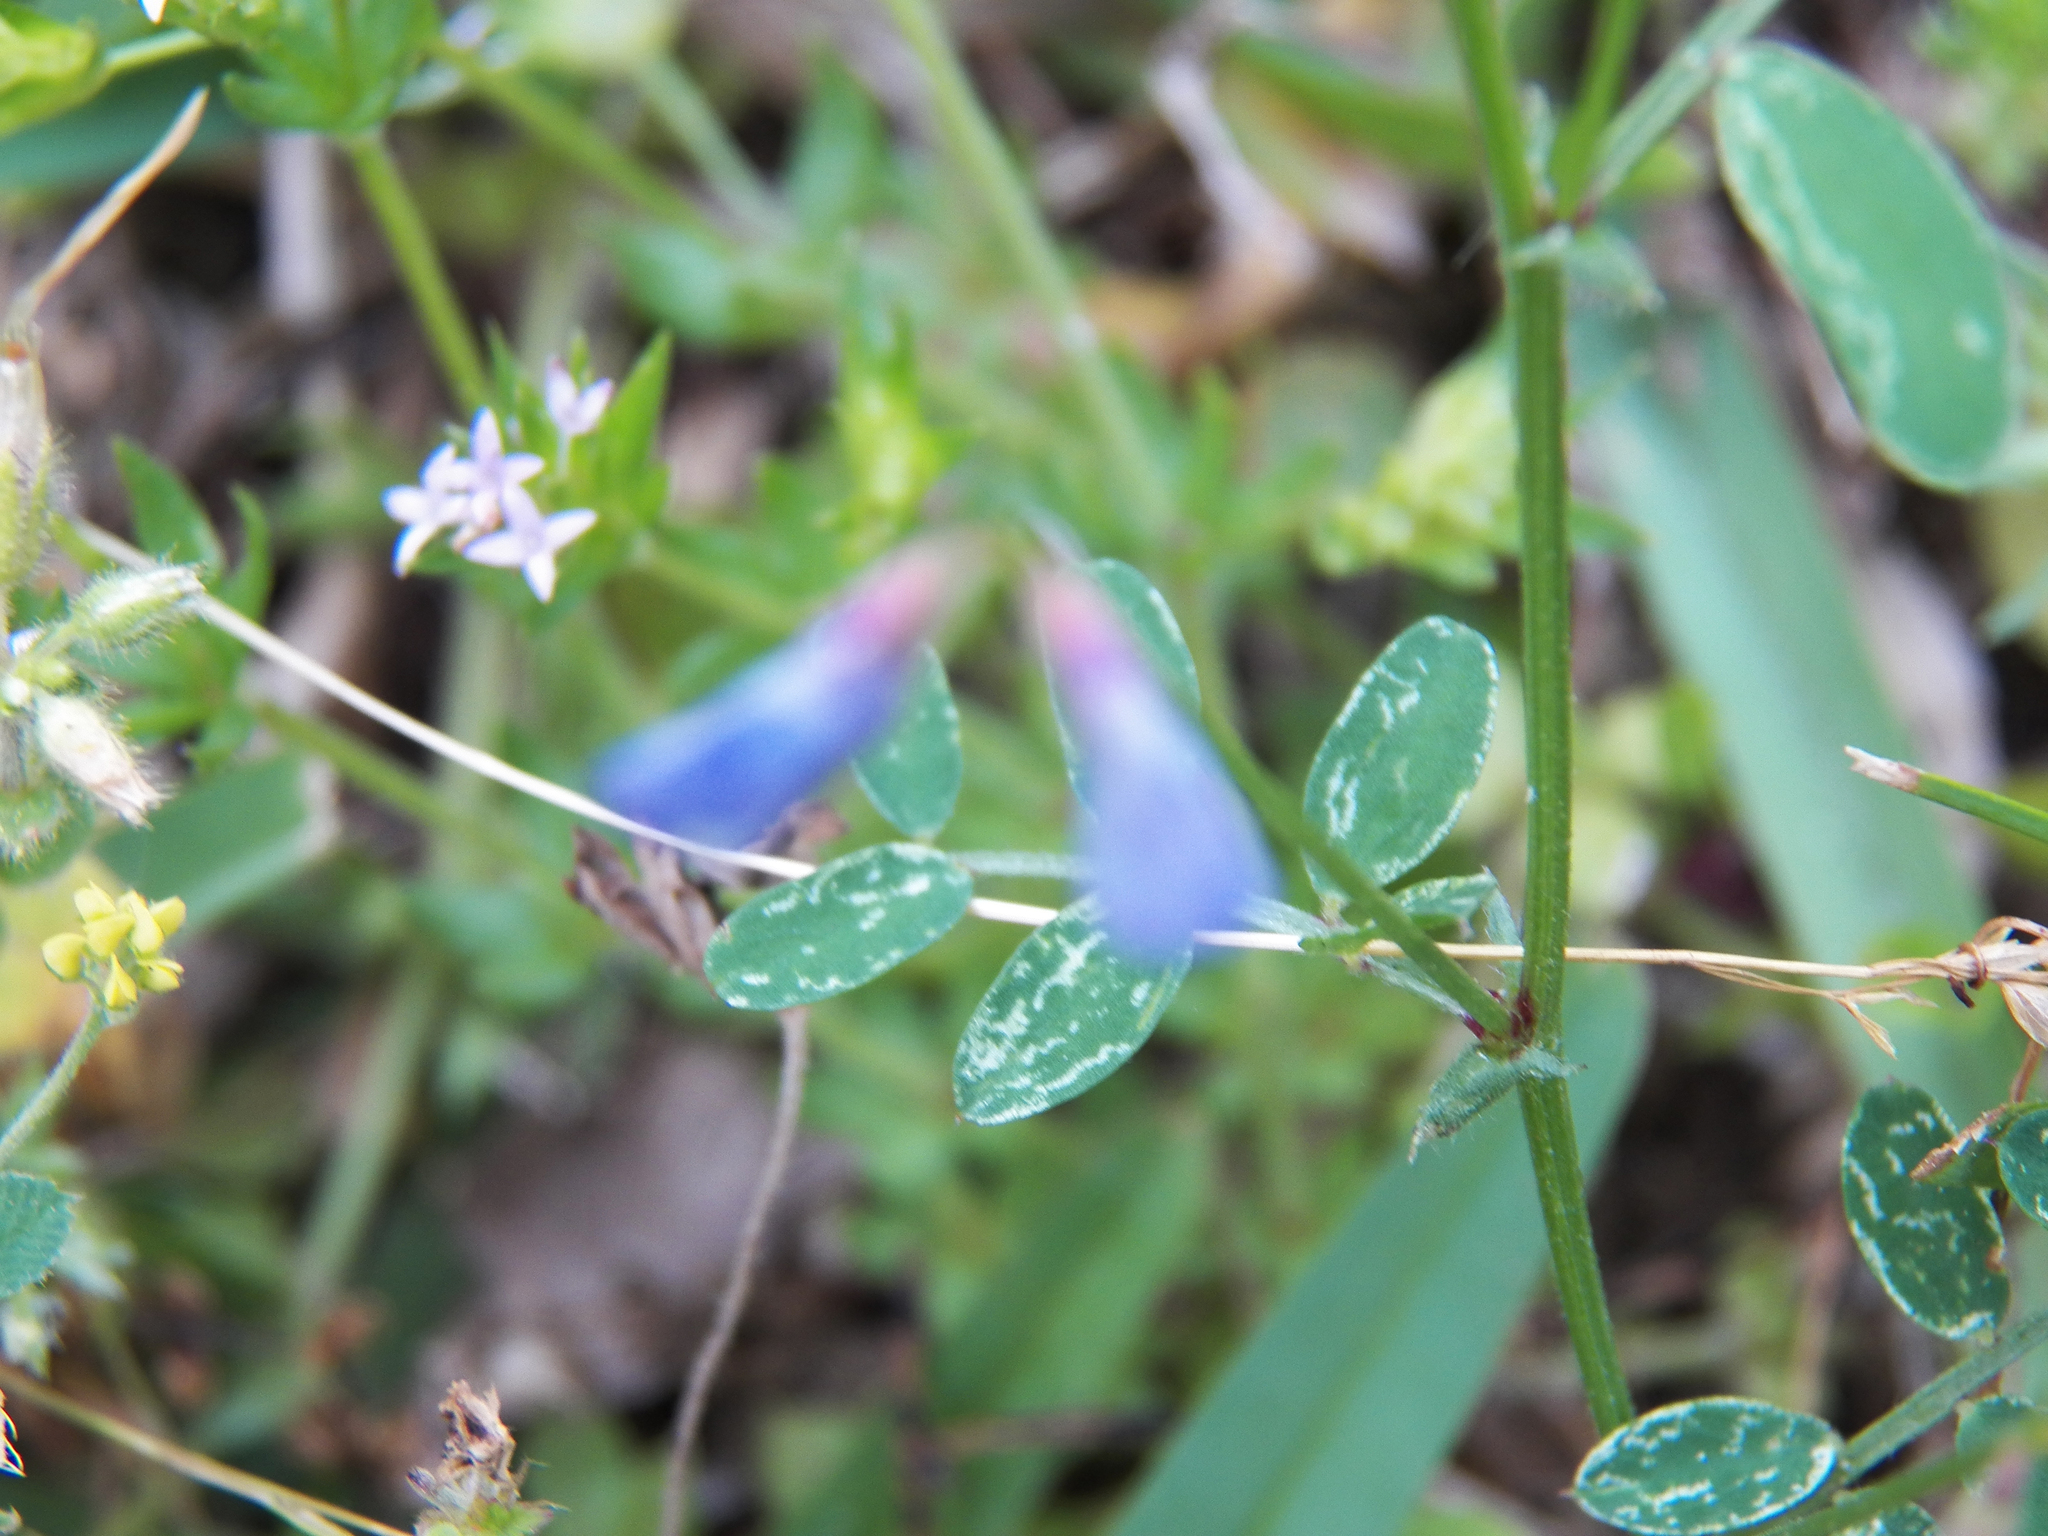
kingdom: Plantae
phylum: Tracheophyta
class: Magnoliopsida
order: Fabales
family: Fabaceae
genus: Vicia
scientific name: Vicia ludoviciana
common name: Louisiana vetch
